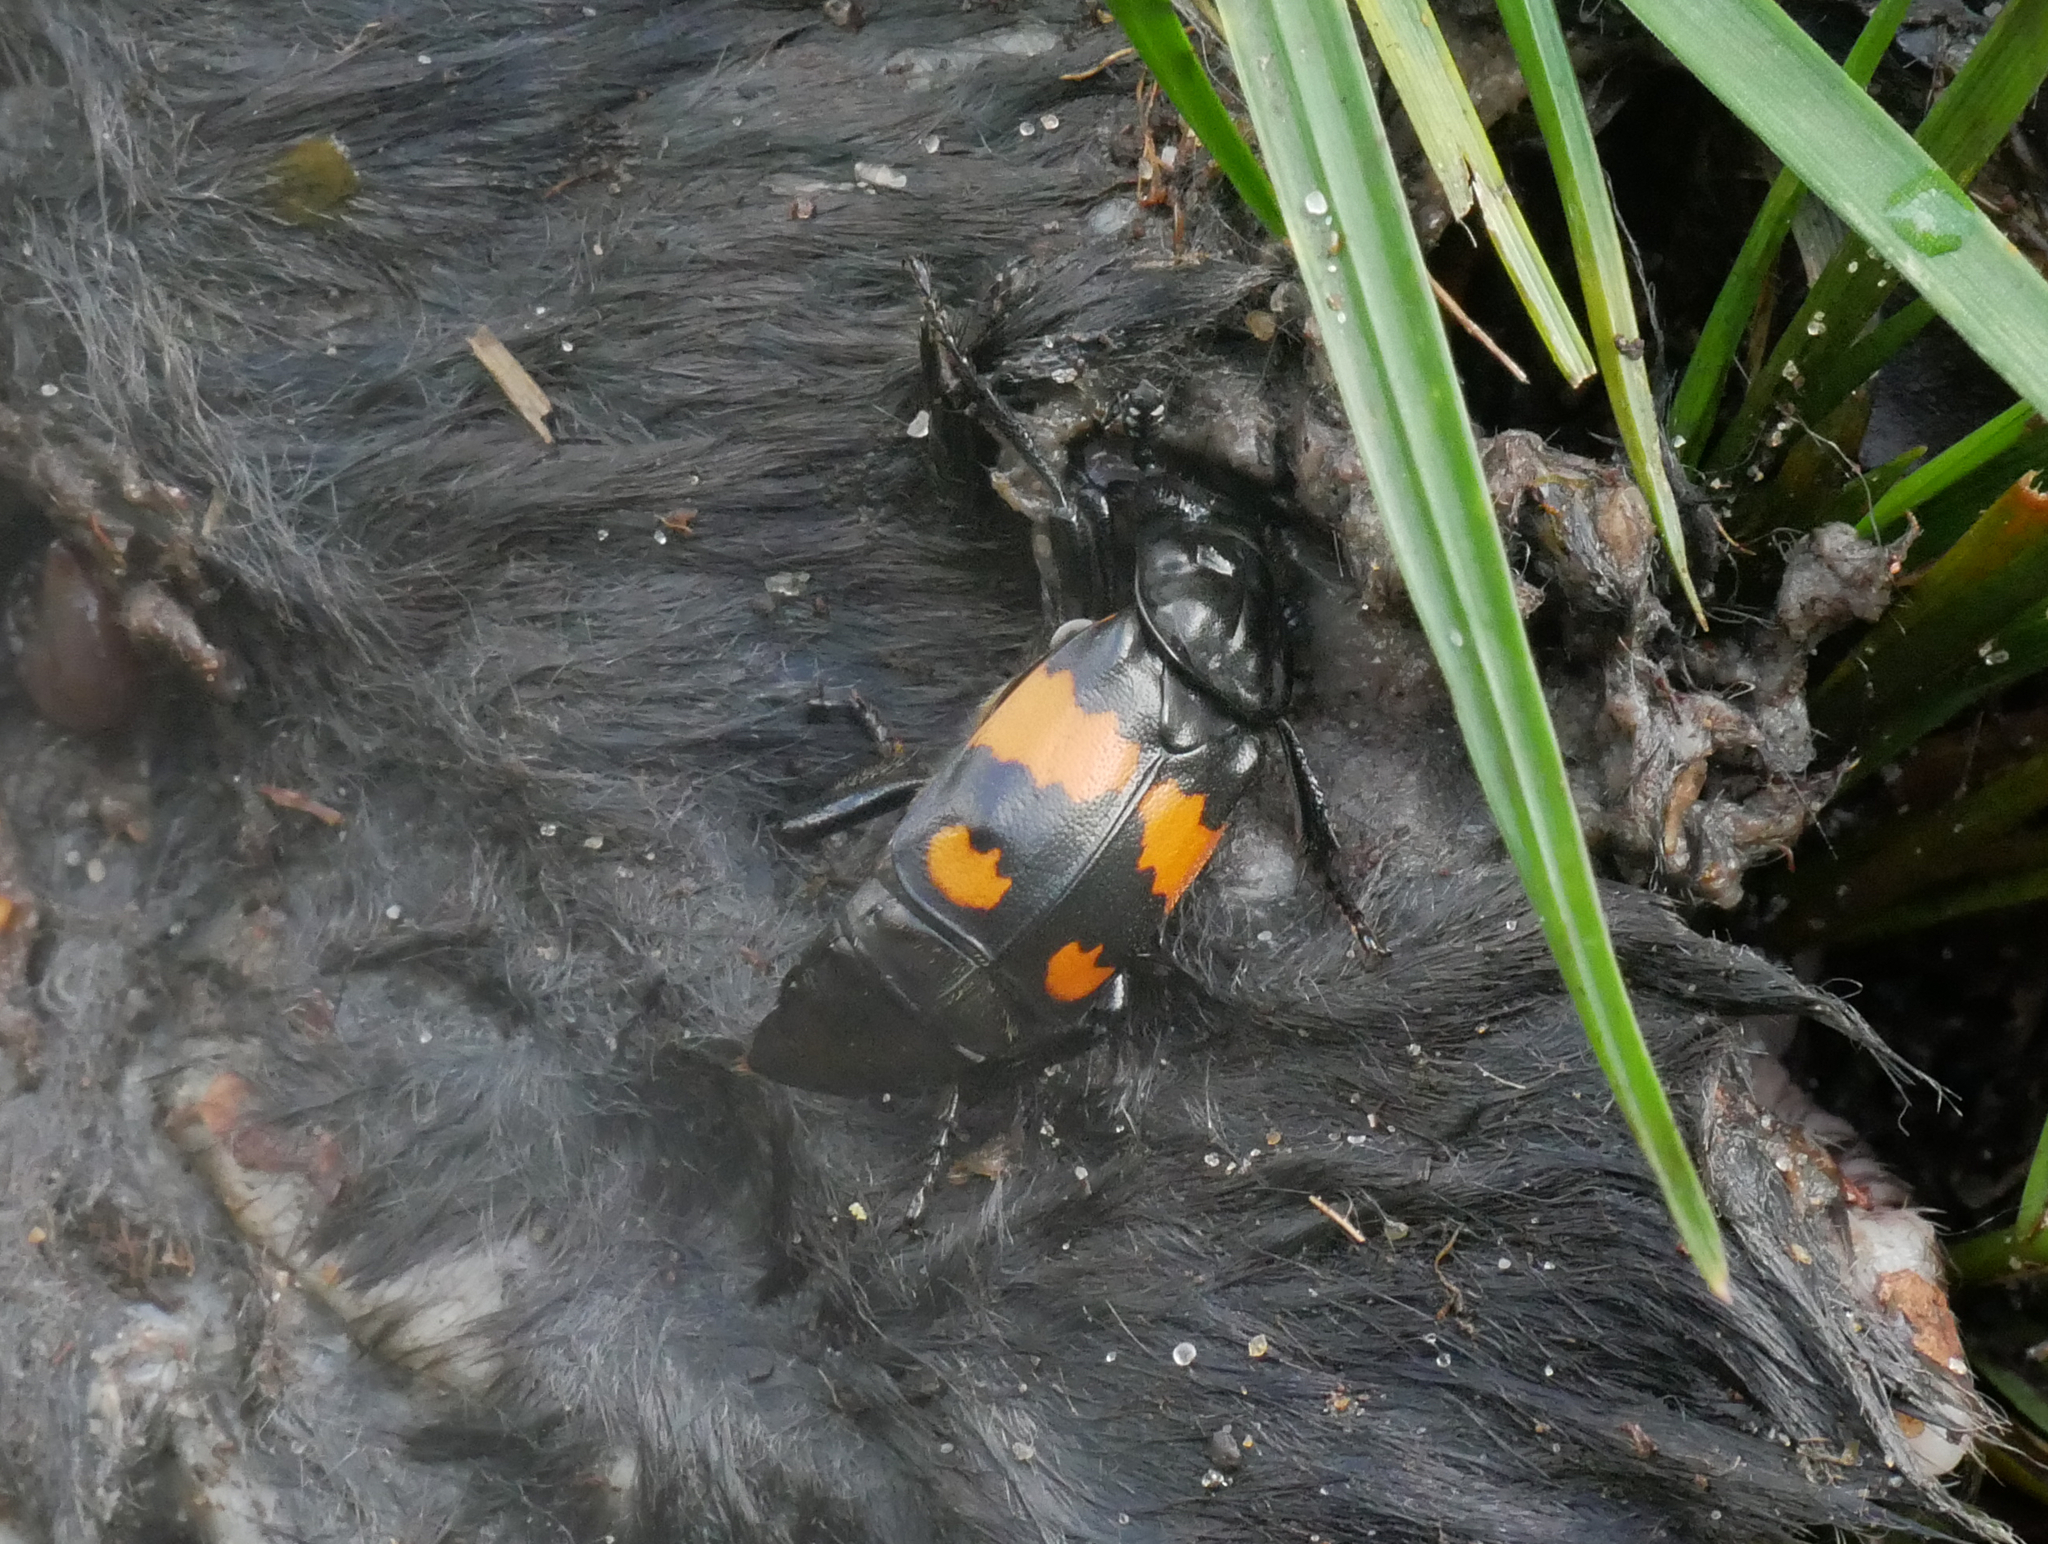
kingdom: Animalia
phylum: Arthropoda
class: Insecta
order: Coleoptera
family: Staphylinidae
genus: Nicrophorus
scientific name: Nicrophorus vespilloides
